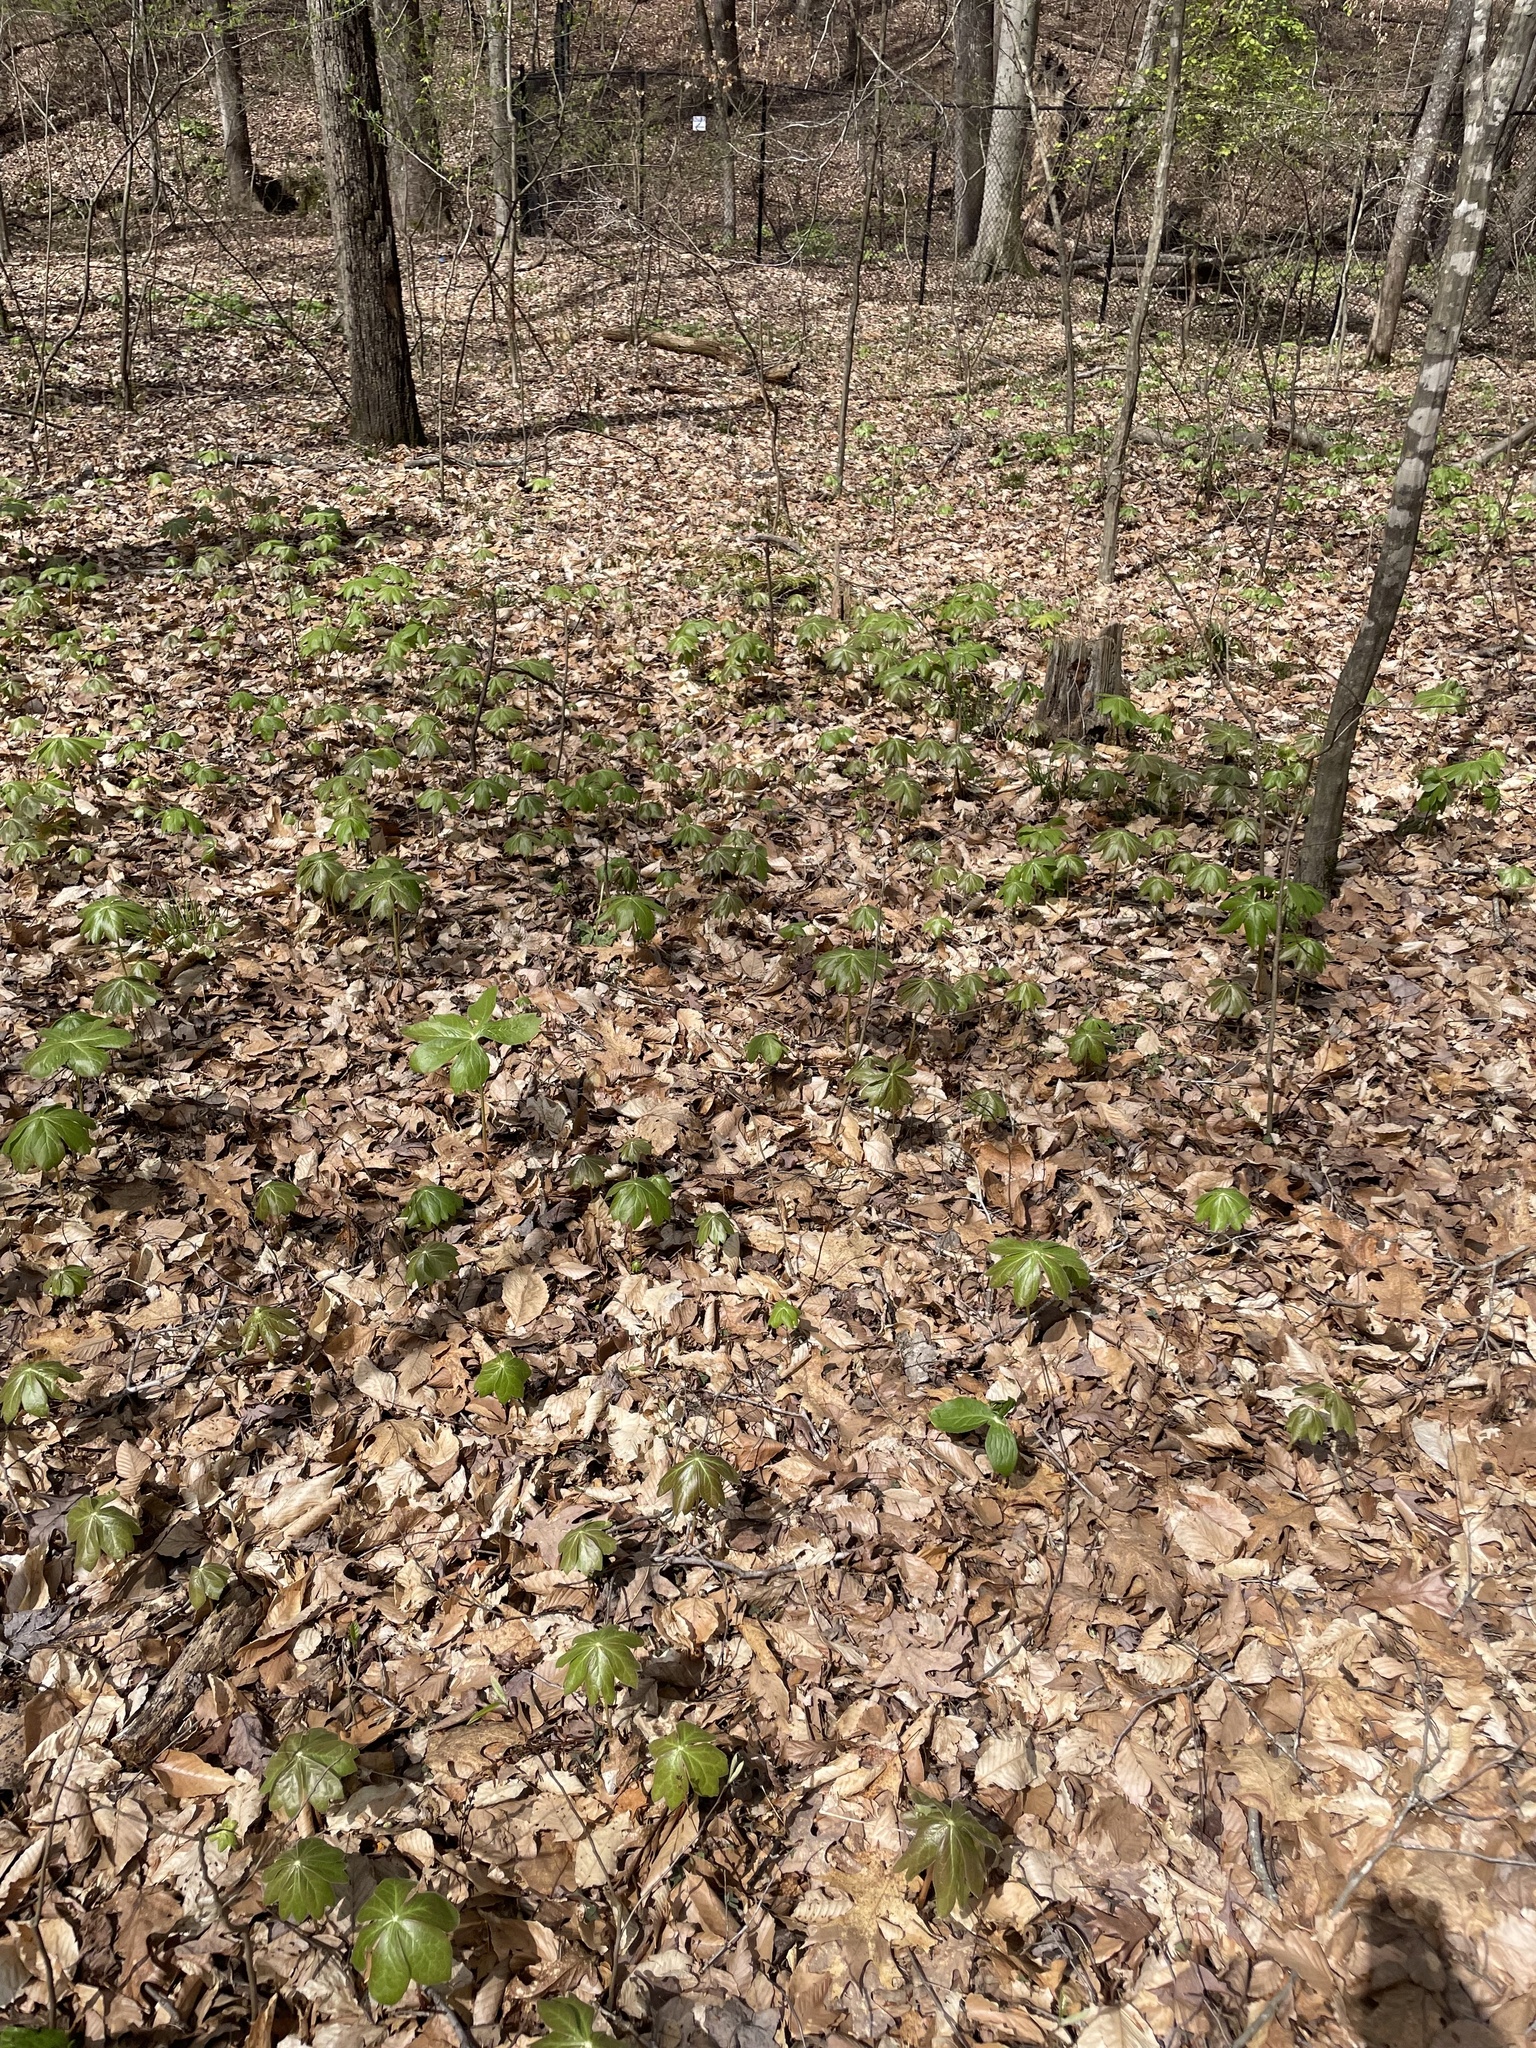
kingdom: Plantae
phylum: Tracheophyta
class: Magnoliopsida
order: Ranunculales
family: Berberidaceae
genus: Podophyllum
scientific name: Podophyllum peltatum
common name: Wild mandrake
